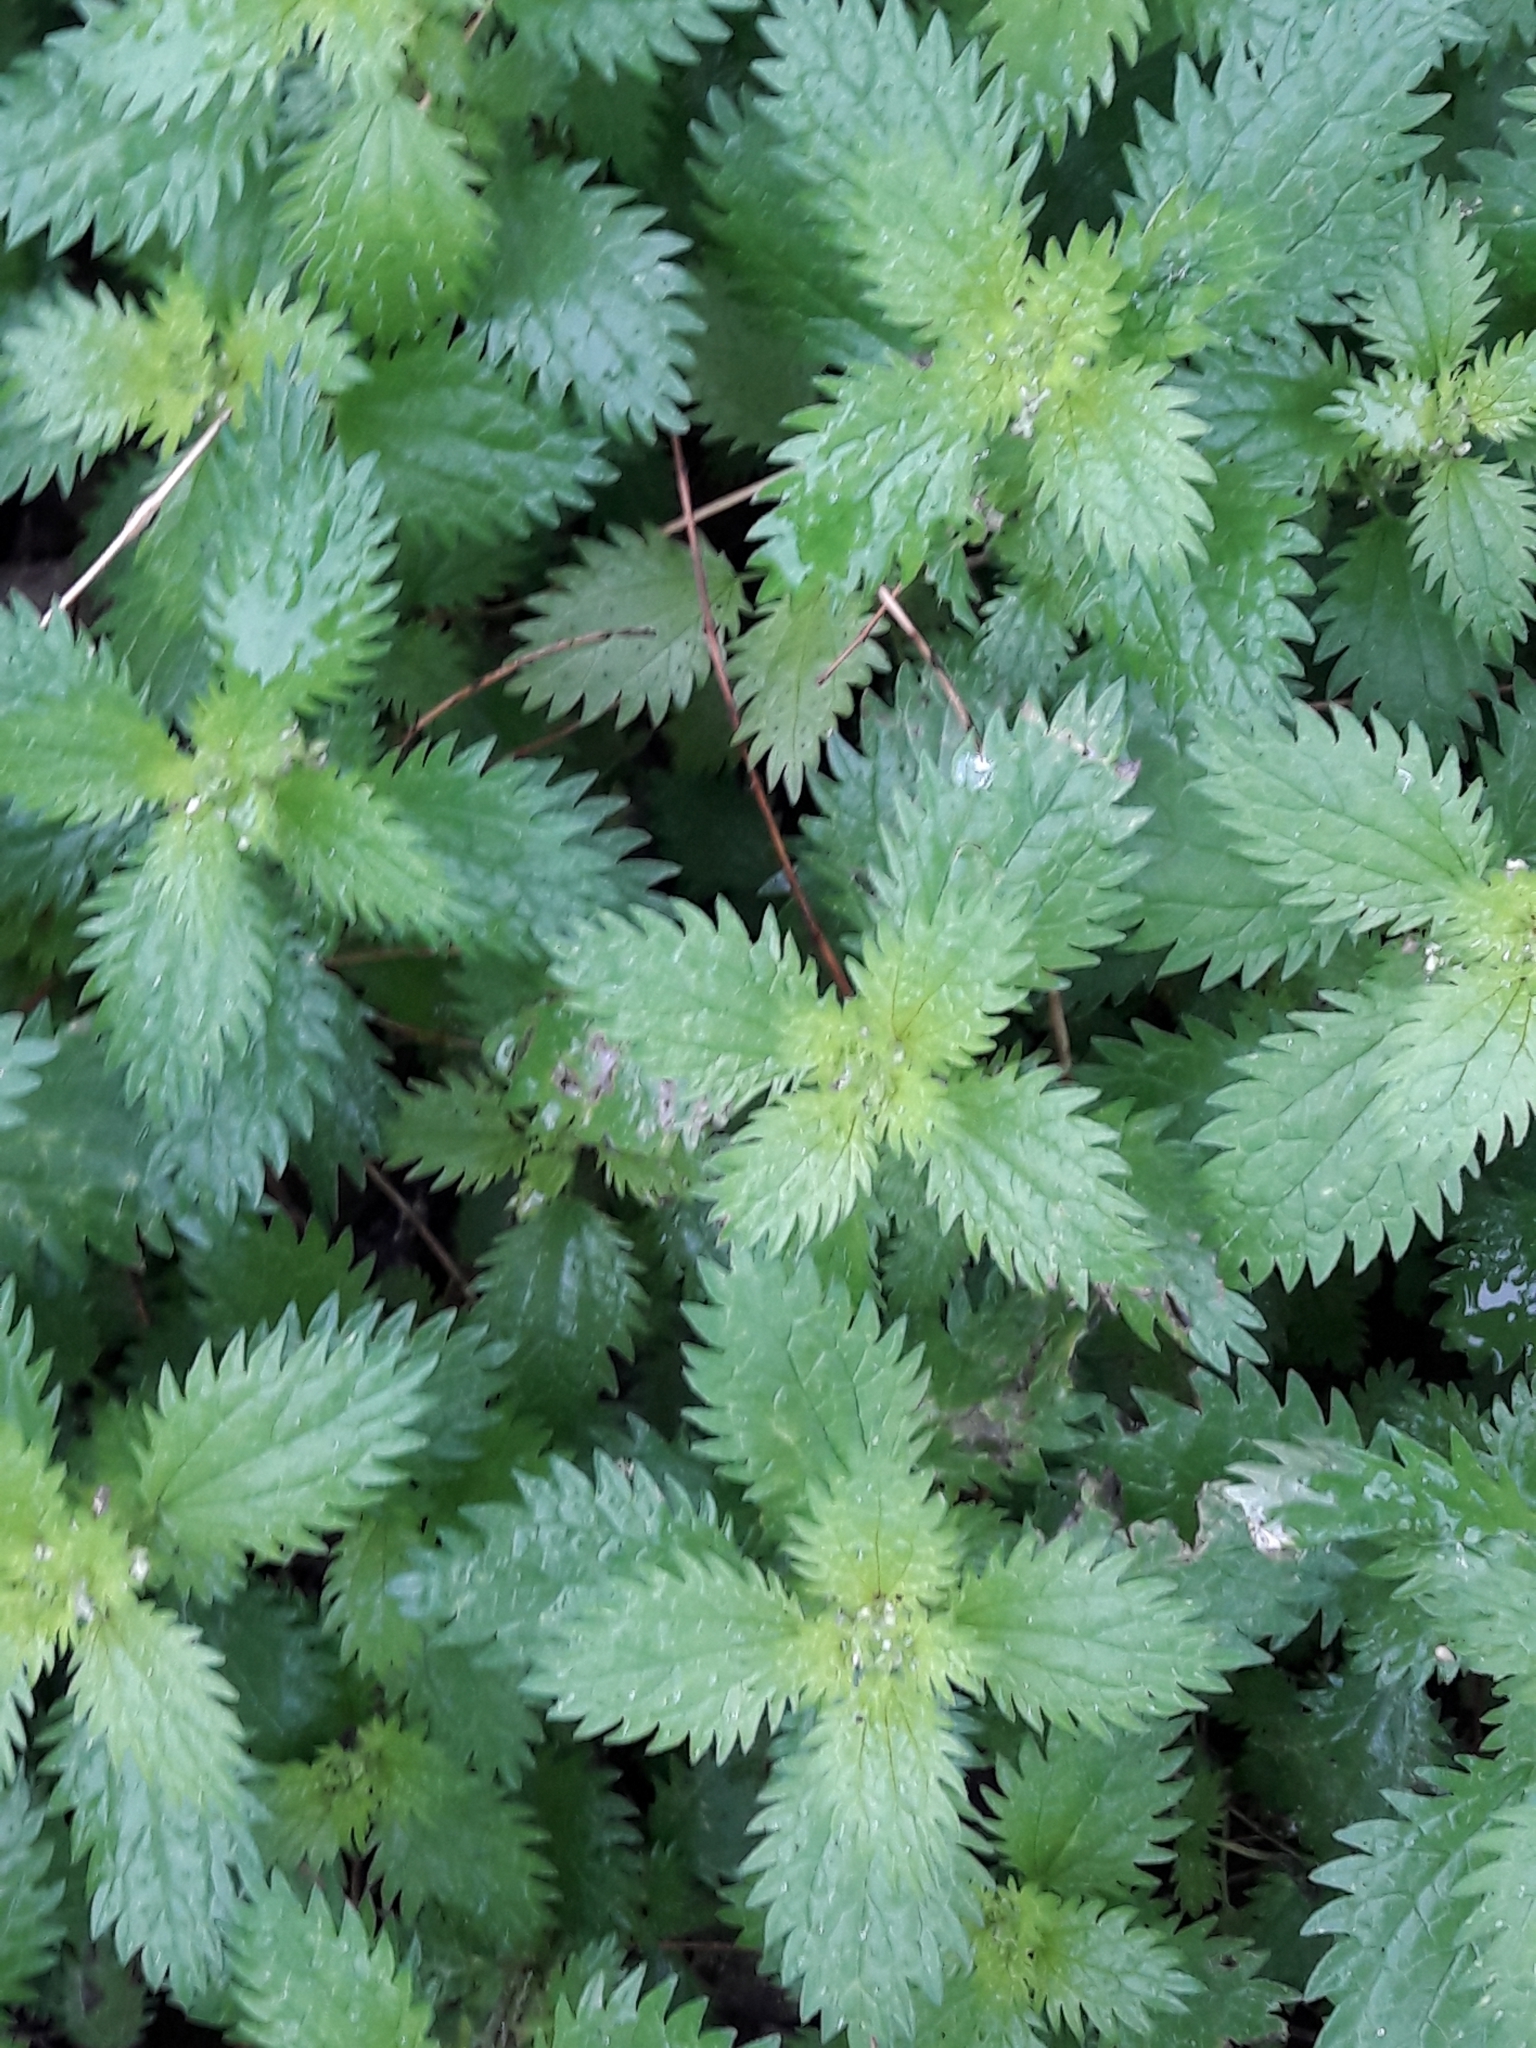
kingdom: Plantae
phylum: Tracheophyta
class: Magnoliopsida
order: Rosales
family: Urticaceae
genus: Urtica
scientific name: Urtica urens
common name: Dwarf nettle
